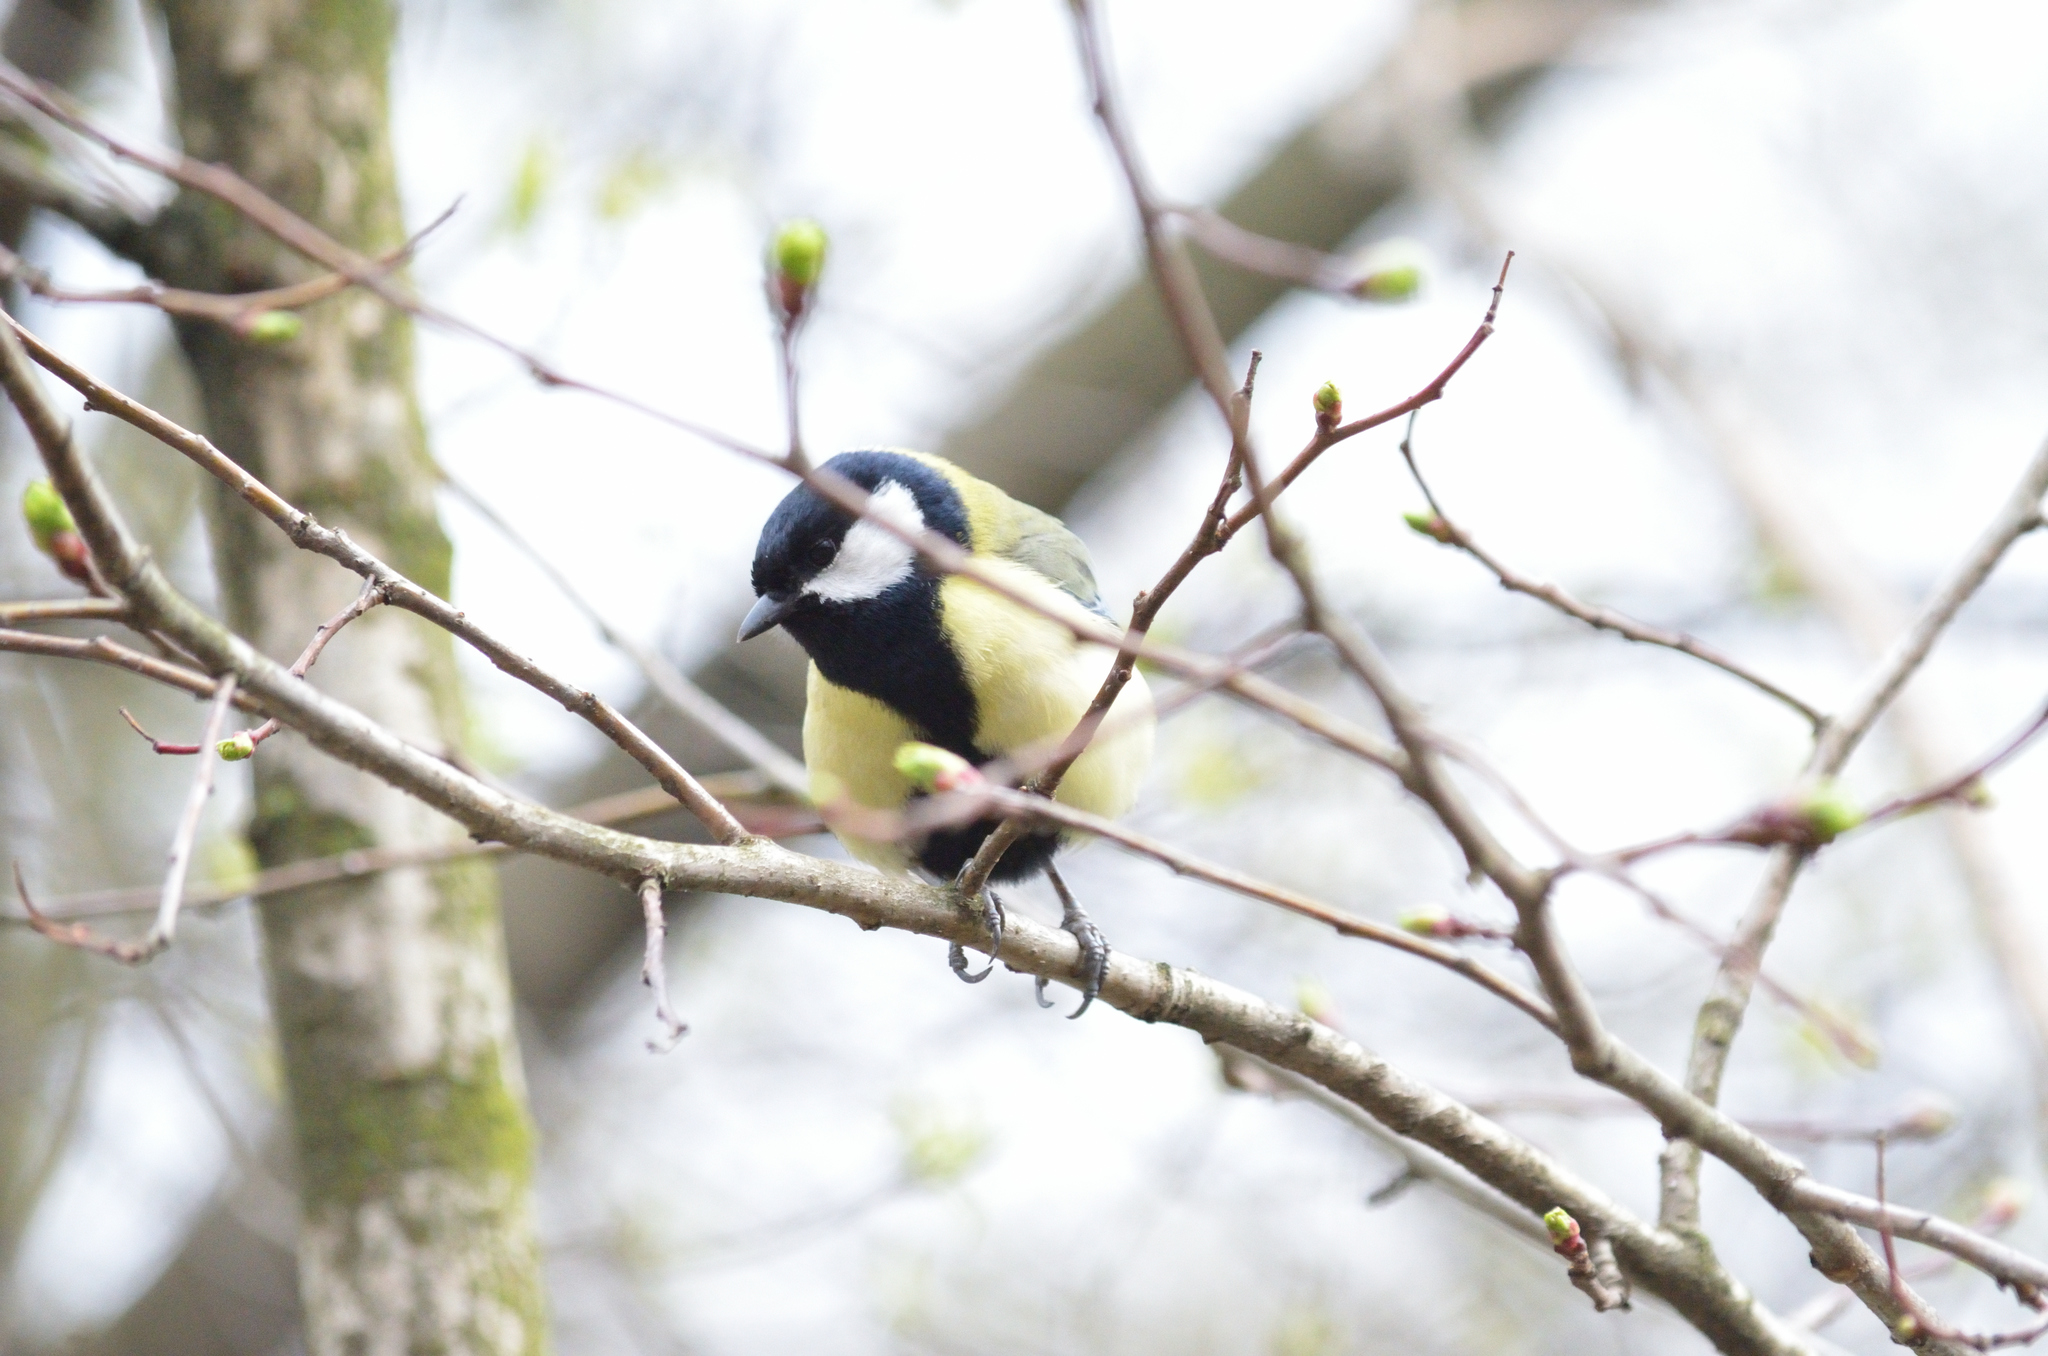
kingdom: Animalia
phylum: Chordata
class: Aves
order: Passeriformes
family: Paridae
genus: Parus
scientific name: Parus major
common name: Great tit
